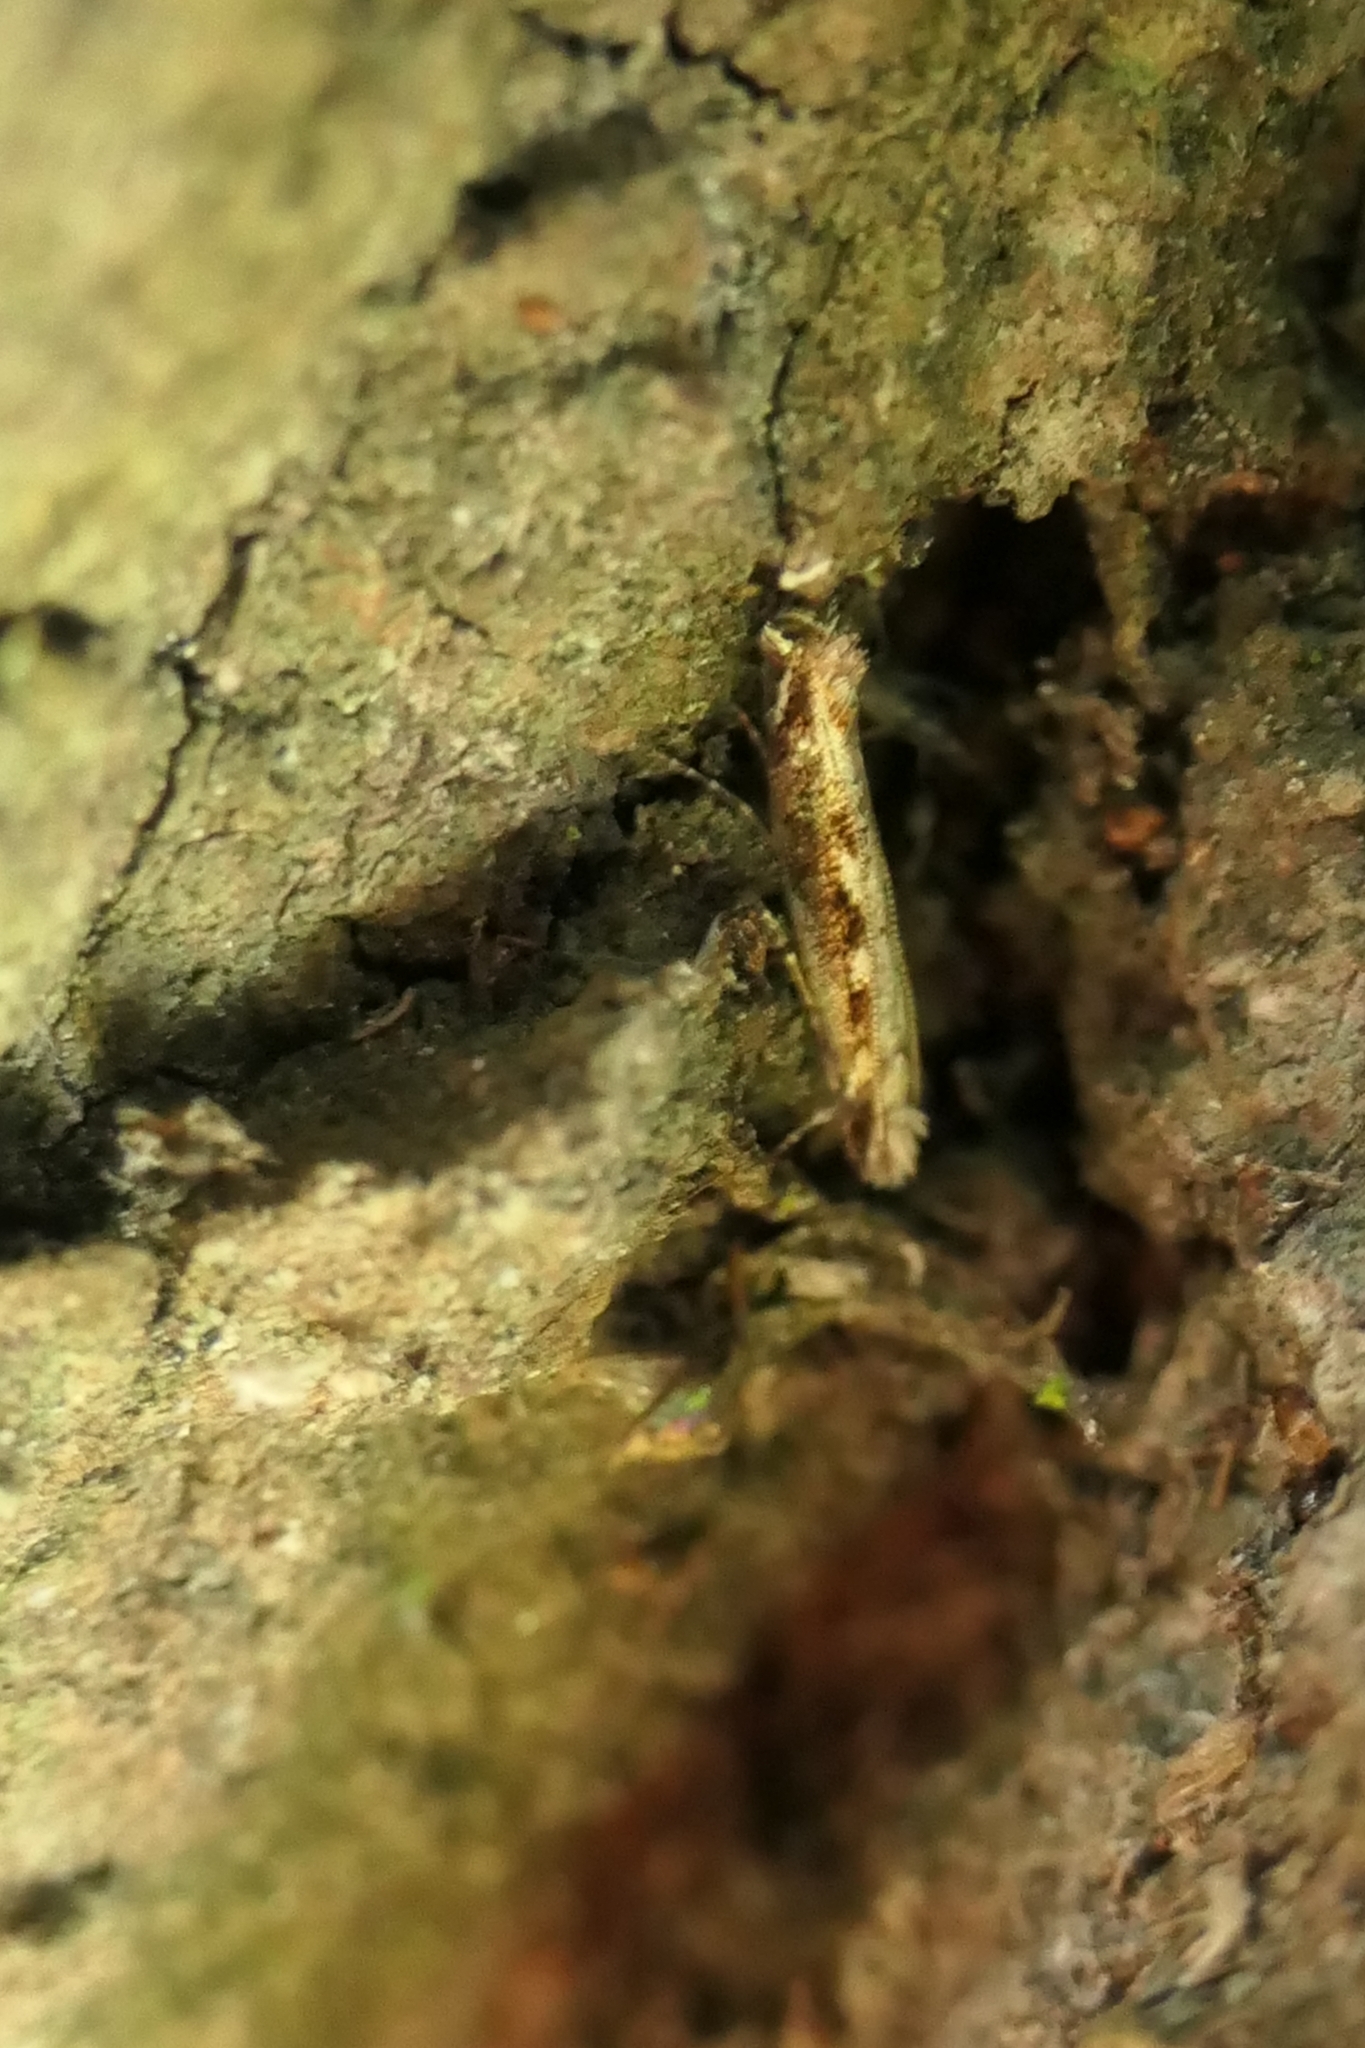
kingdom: Animalia
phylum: Arthropoda
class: Insecta
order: Lepidoptera
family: Tineidae
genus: Erechthias
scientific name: Erechthias fulguritella
